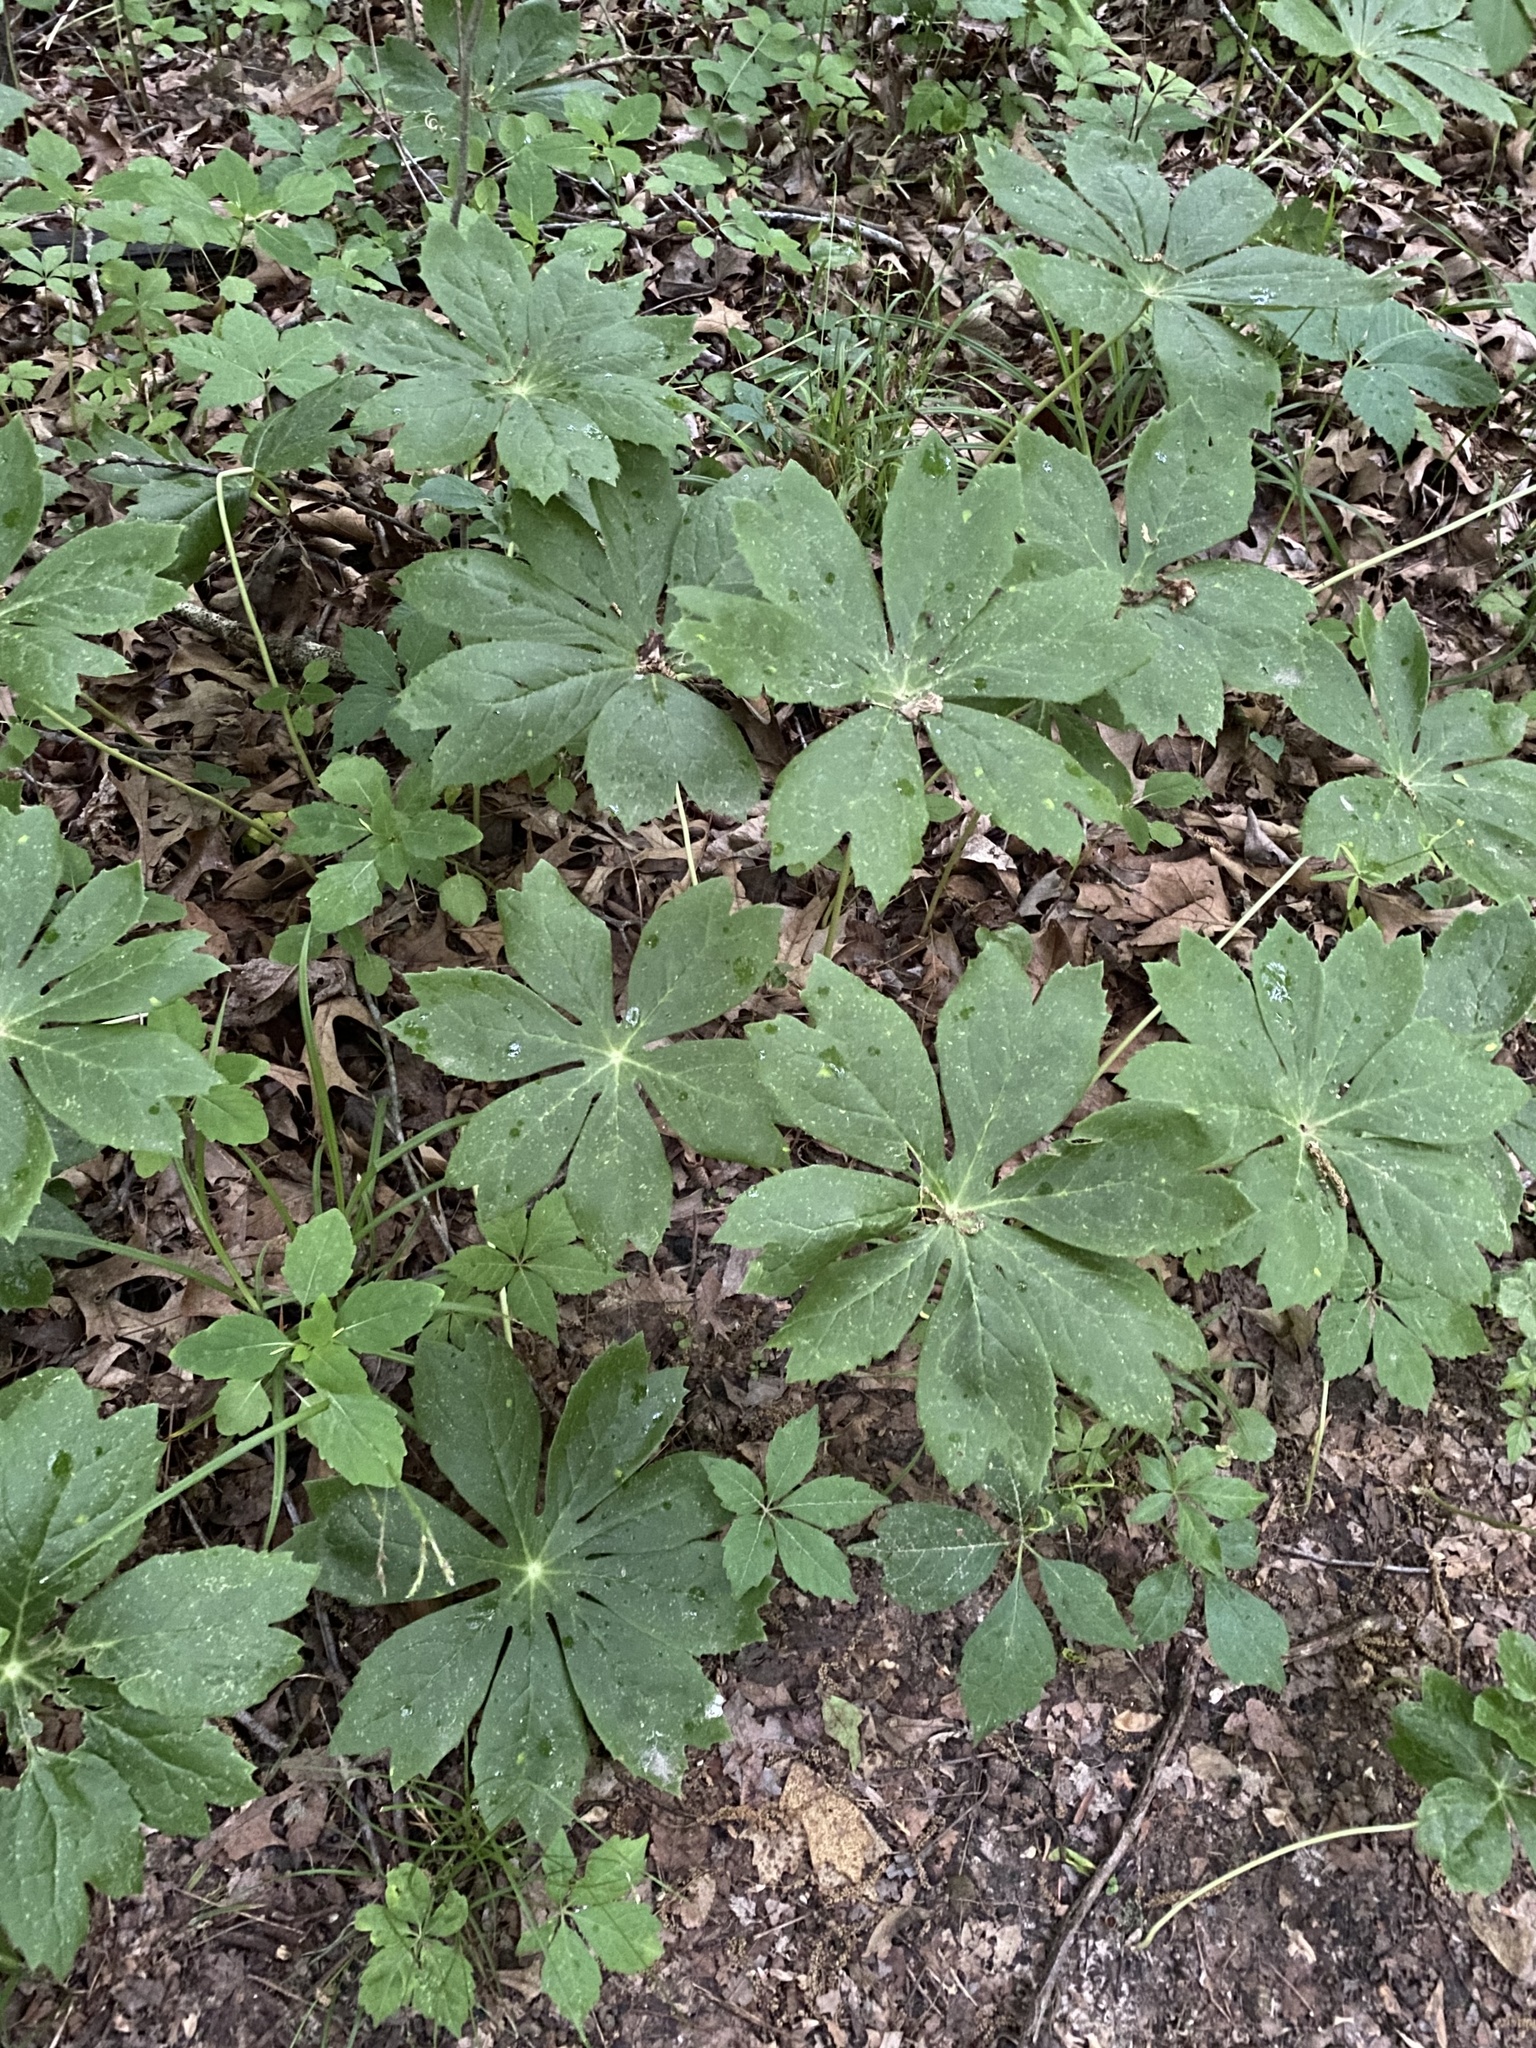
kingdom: Plantae
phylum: Tracheophyta
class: Magnoliopsida
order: Ranunculales
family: Berberidaceae
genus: Podophyllum
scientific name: Podophyllum peltatum
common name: Wild mandrake
